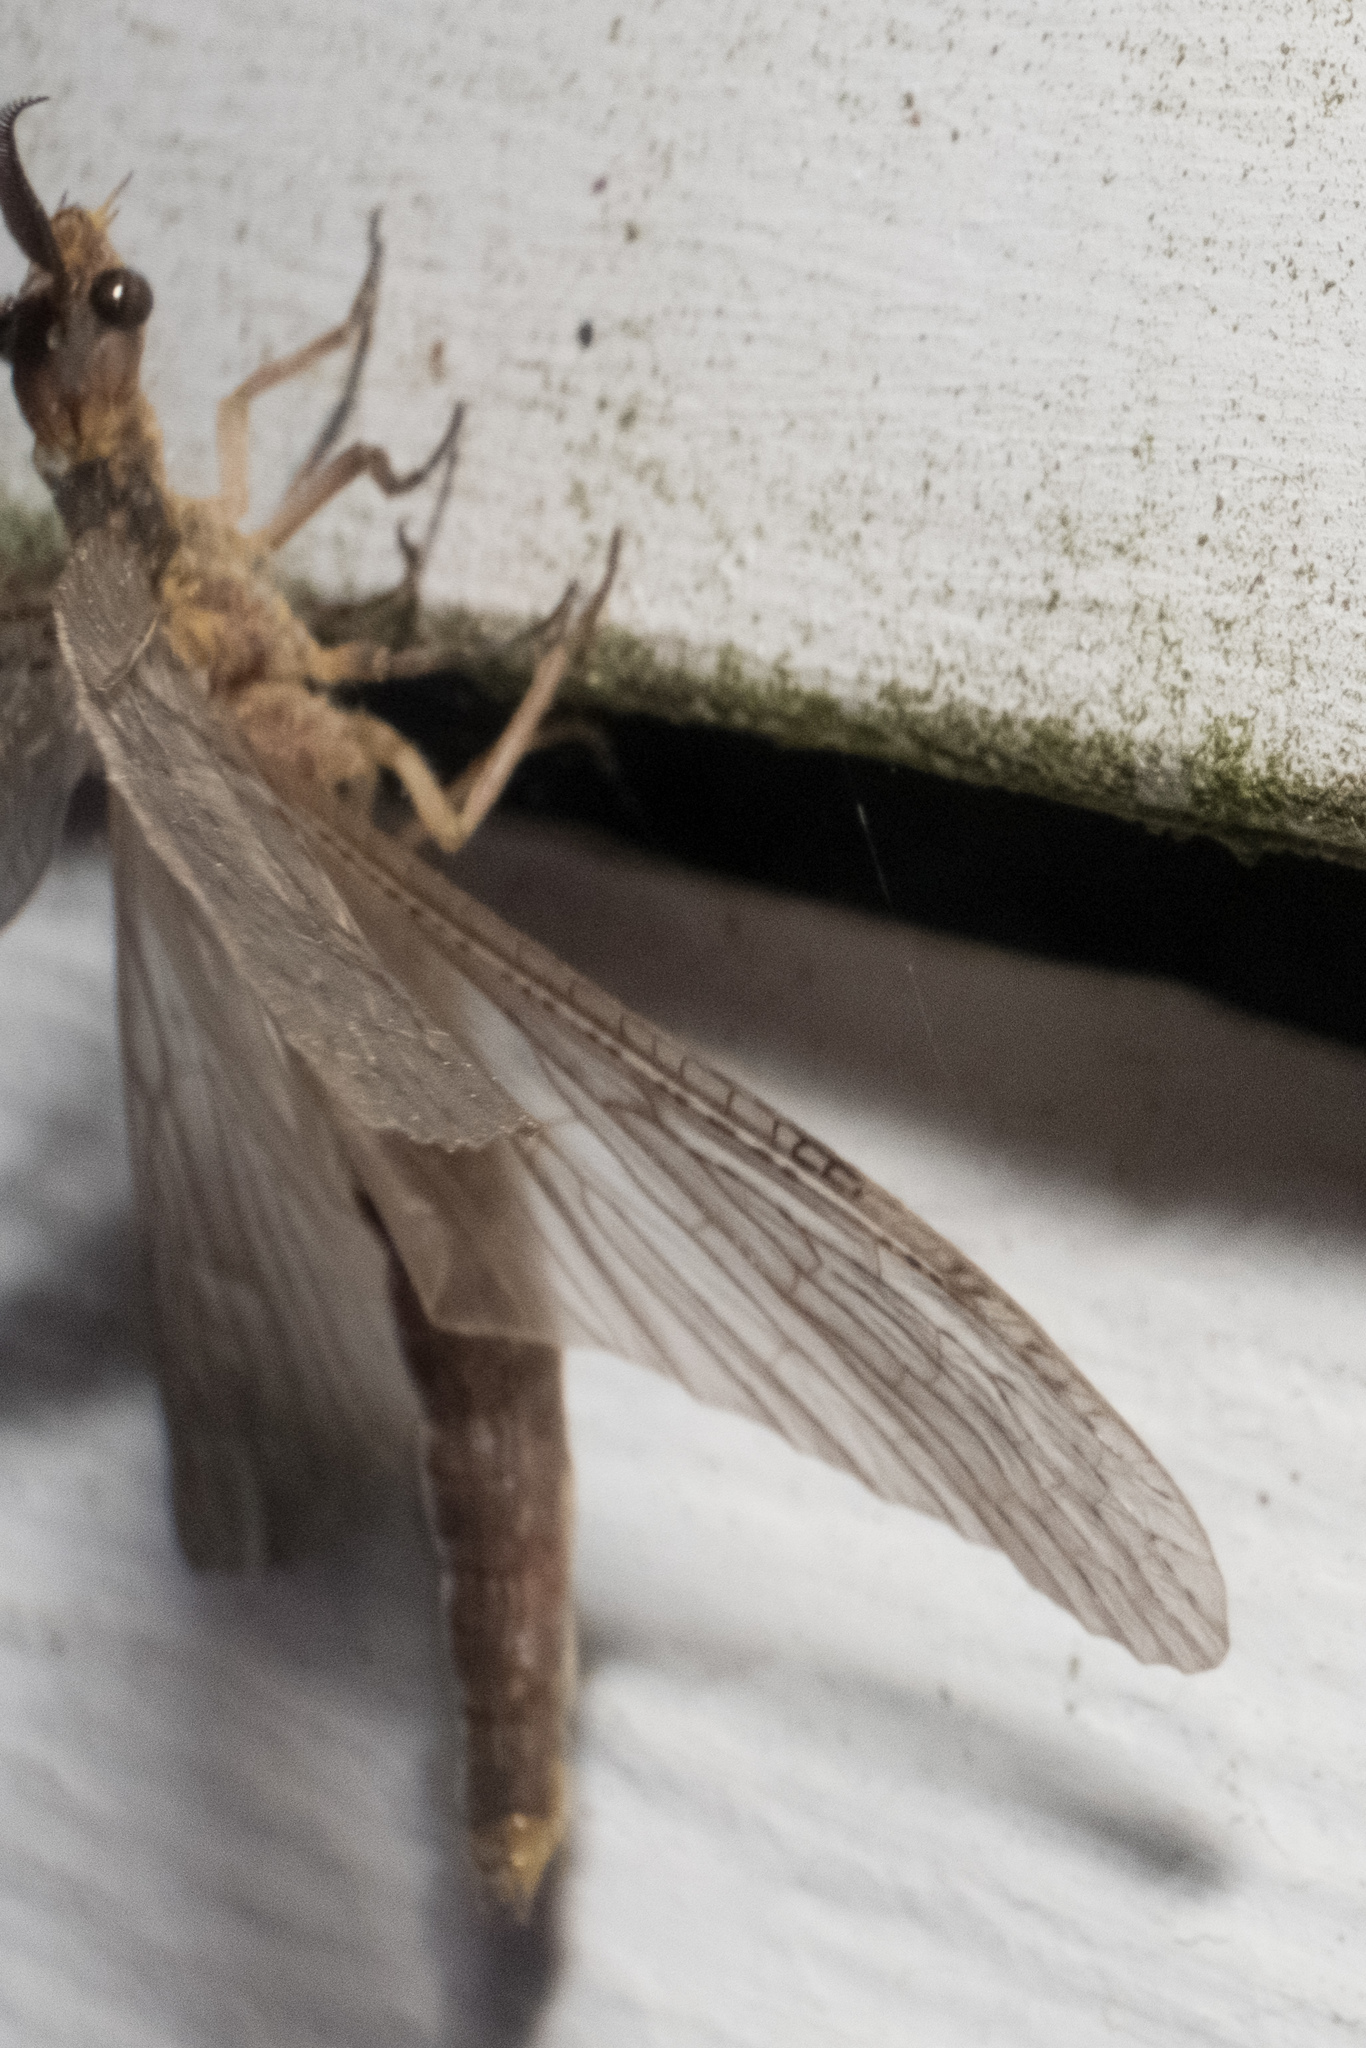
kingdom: Animalia
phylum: Arthropoda
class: Insecta
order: Megaloptera
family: Corydalidae
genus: Chauliodes
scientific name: Chauliodes pectinicornis
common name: Summer fishfly
